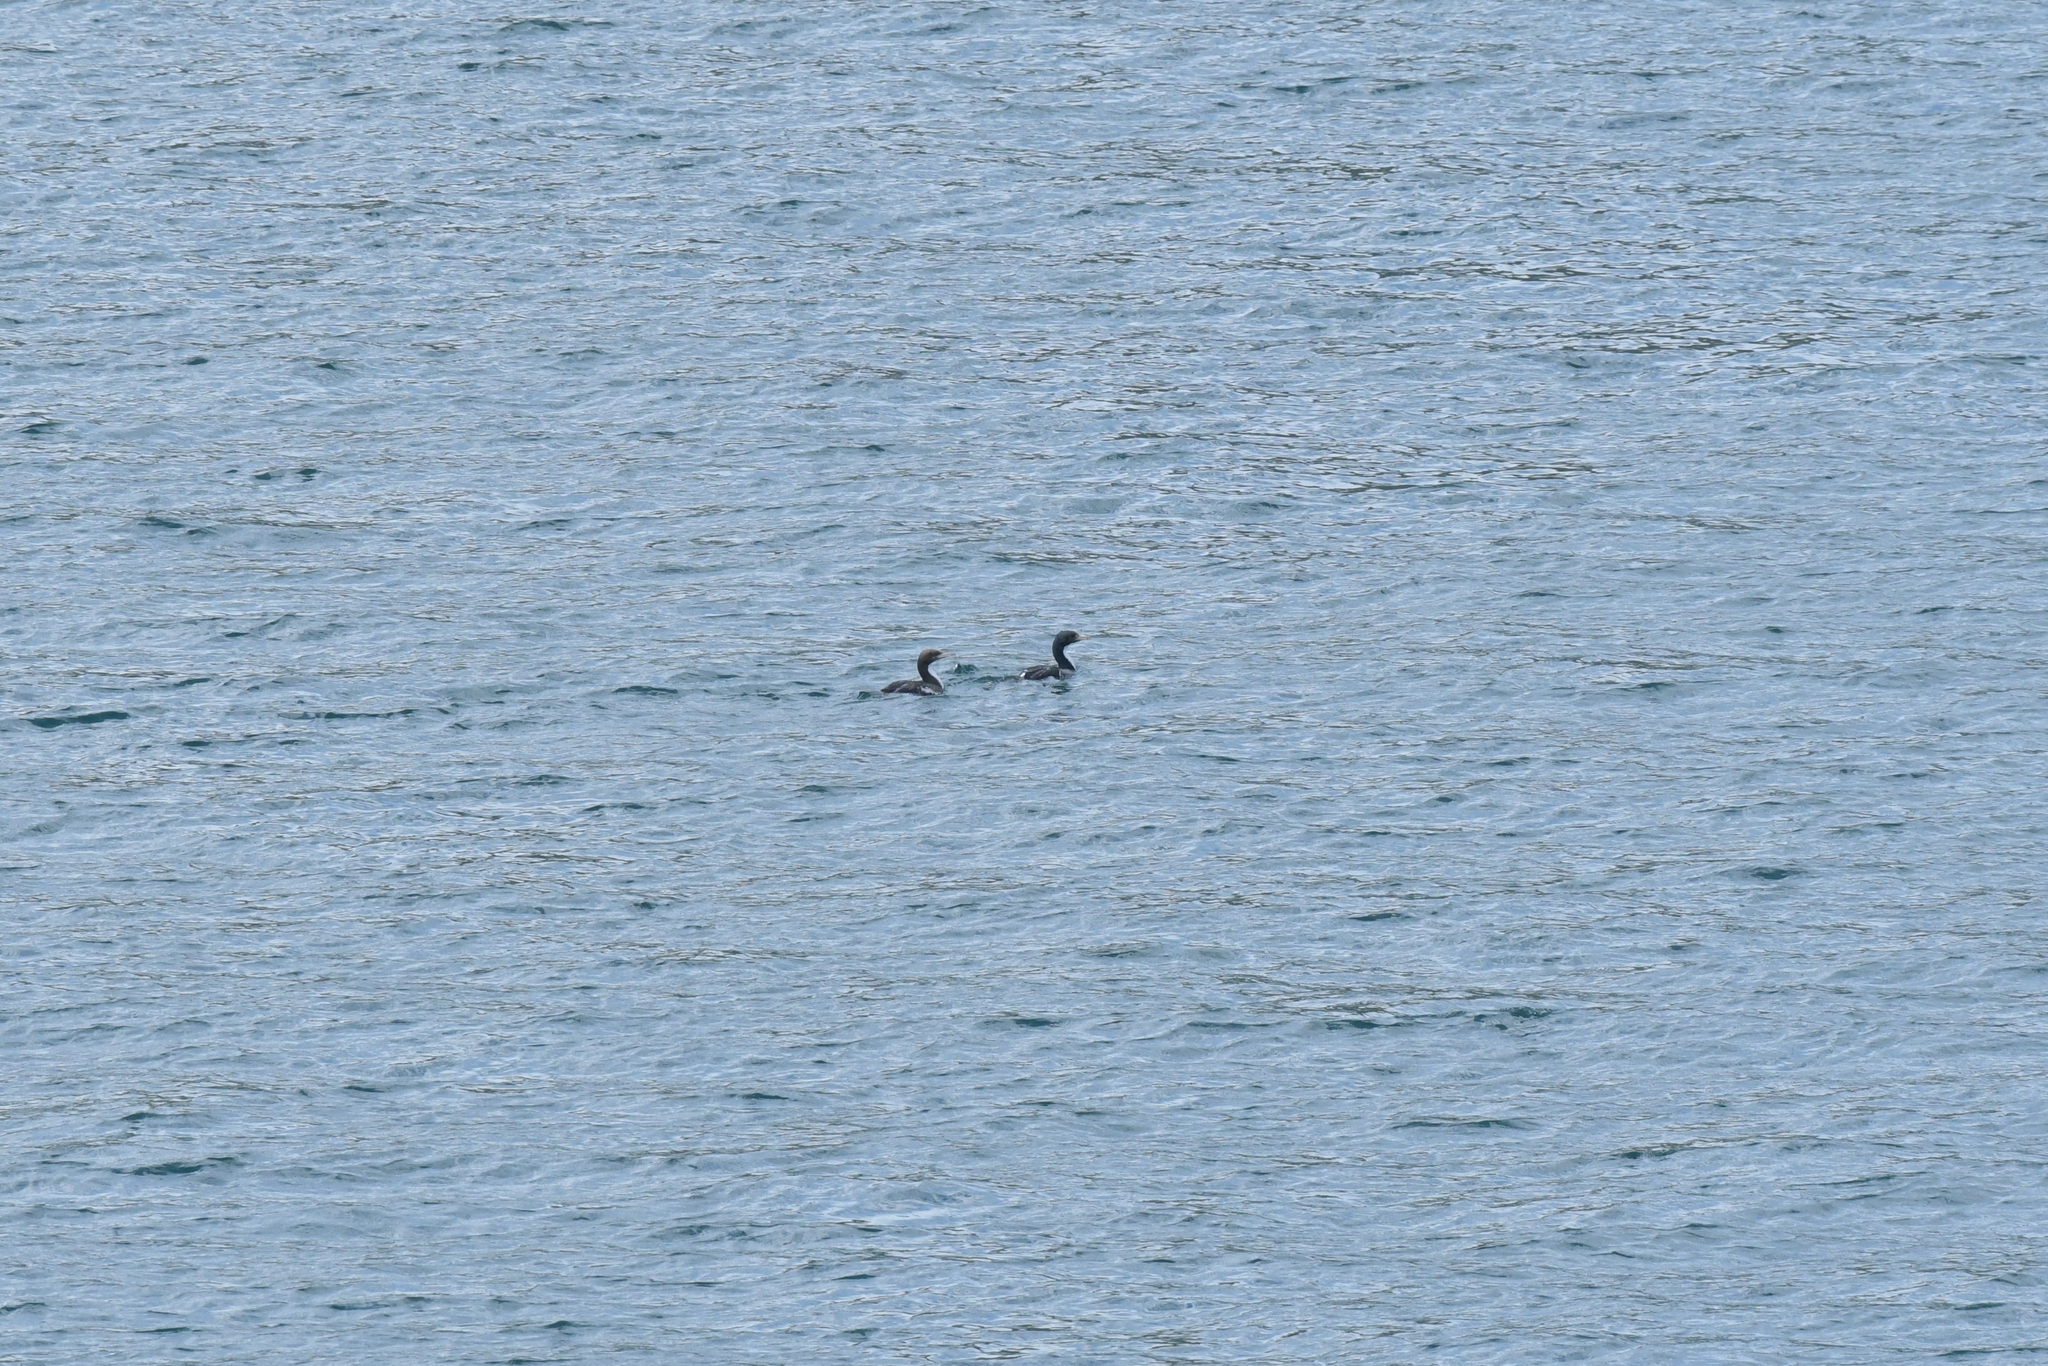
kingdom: Animalia
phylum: Chordata
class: Aves
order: Suliformes
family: Phalacrocoracidae
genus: Leucocarbo
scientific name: Leucocarbo carunculatus
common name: Rough-faced shag
